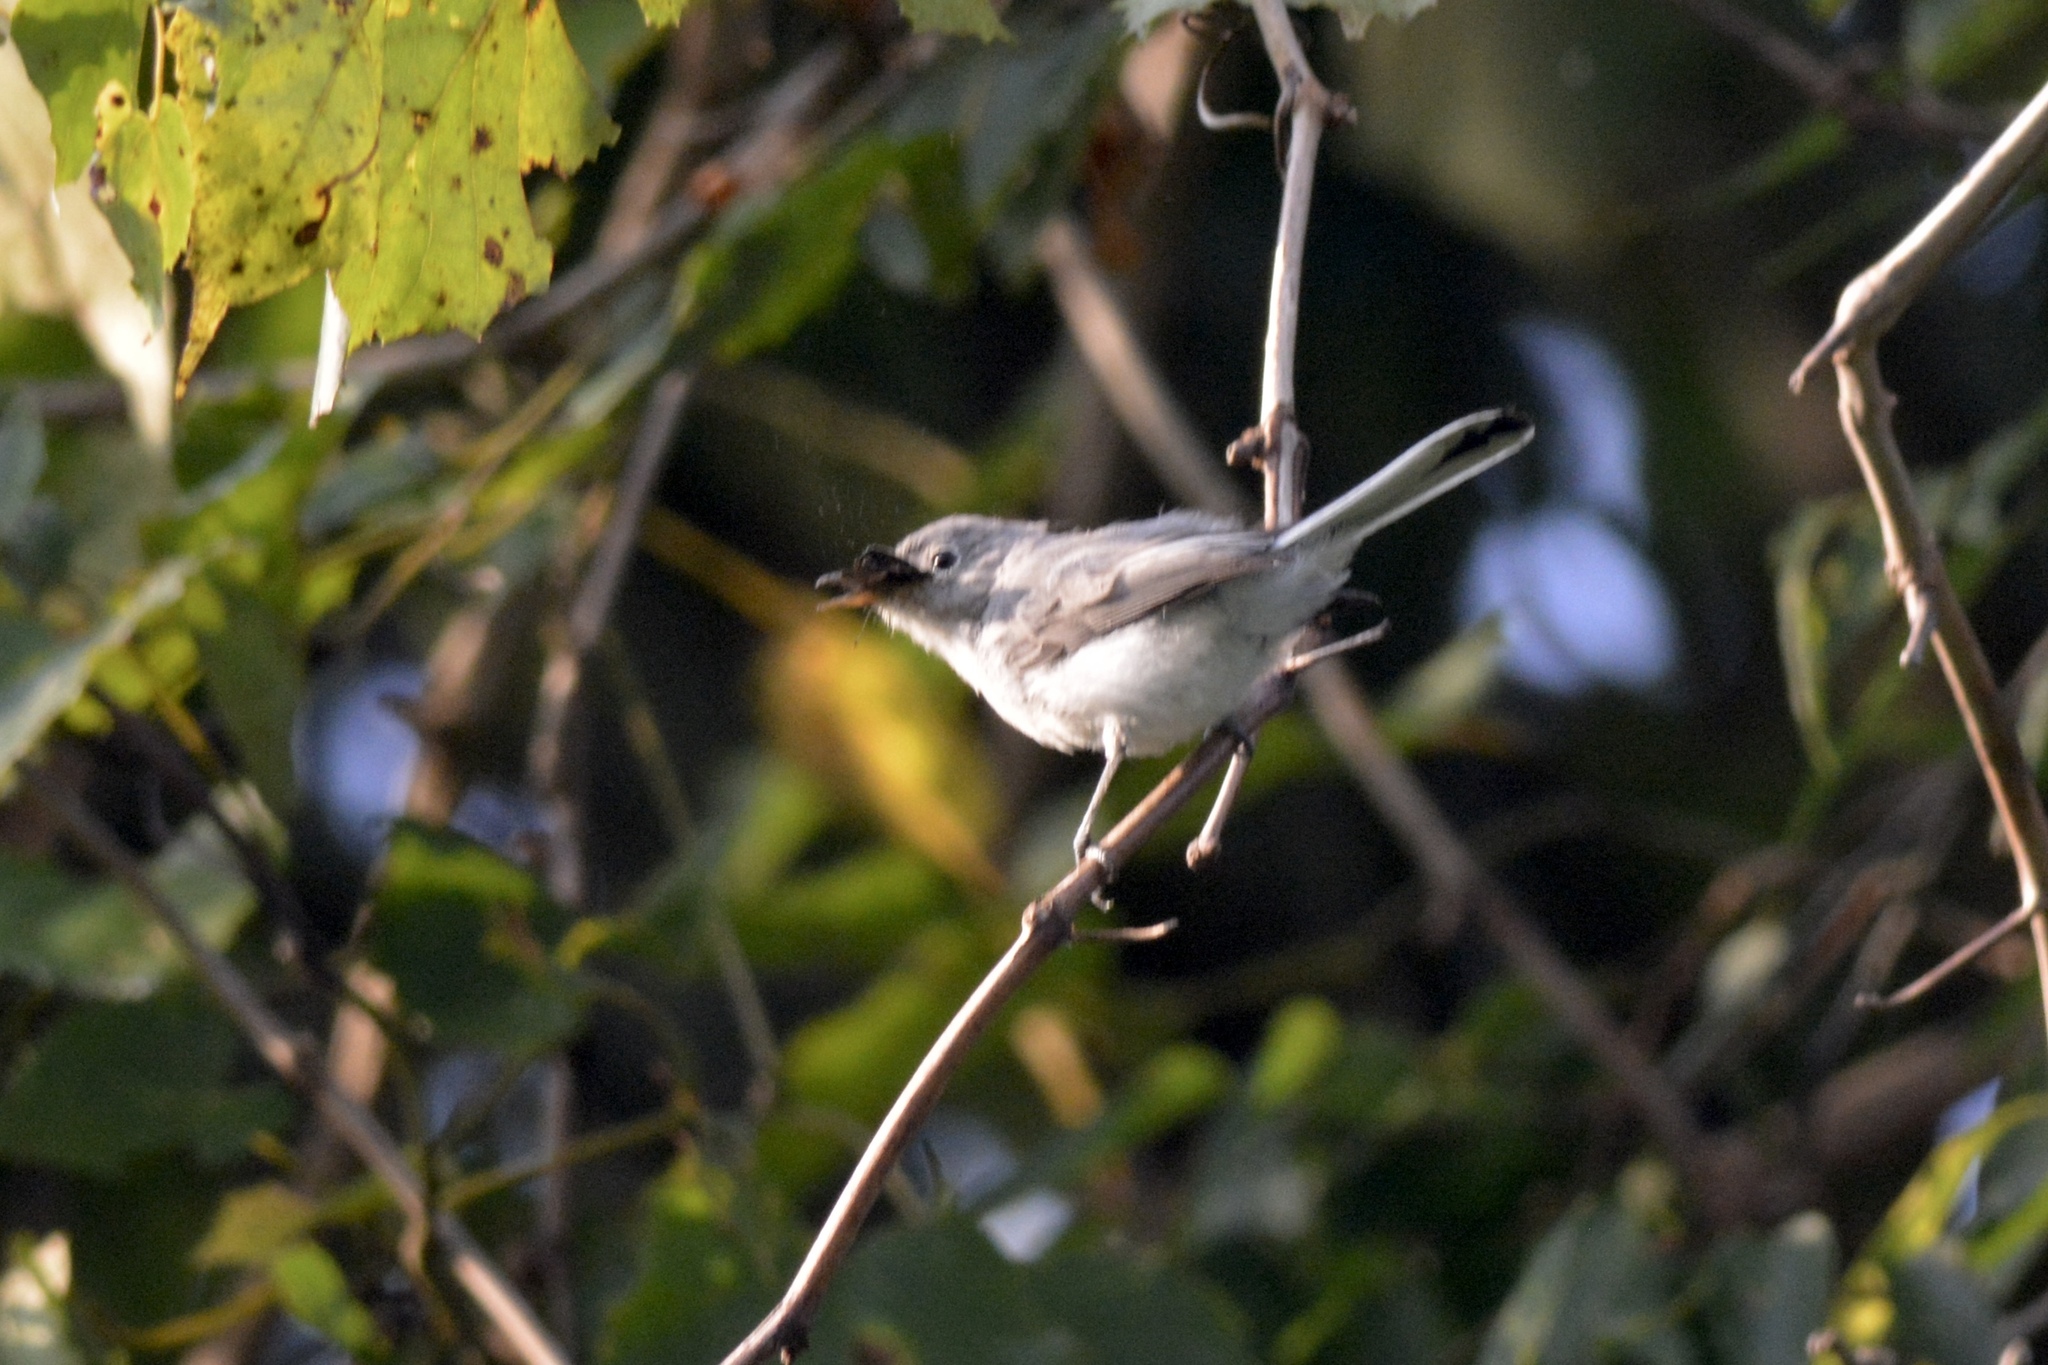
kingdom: Animalia
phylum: Chordata
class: Aves
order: Passeriformes
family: Polioptilidae
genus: Polioptila
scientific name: Polioptila caerulea
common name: Blue-gray gnatcatcher
